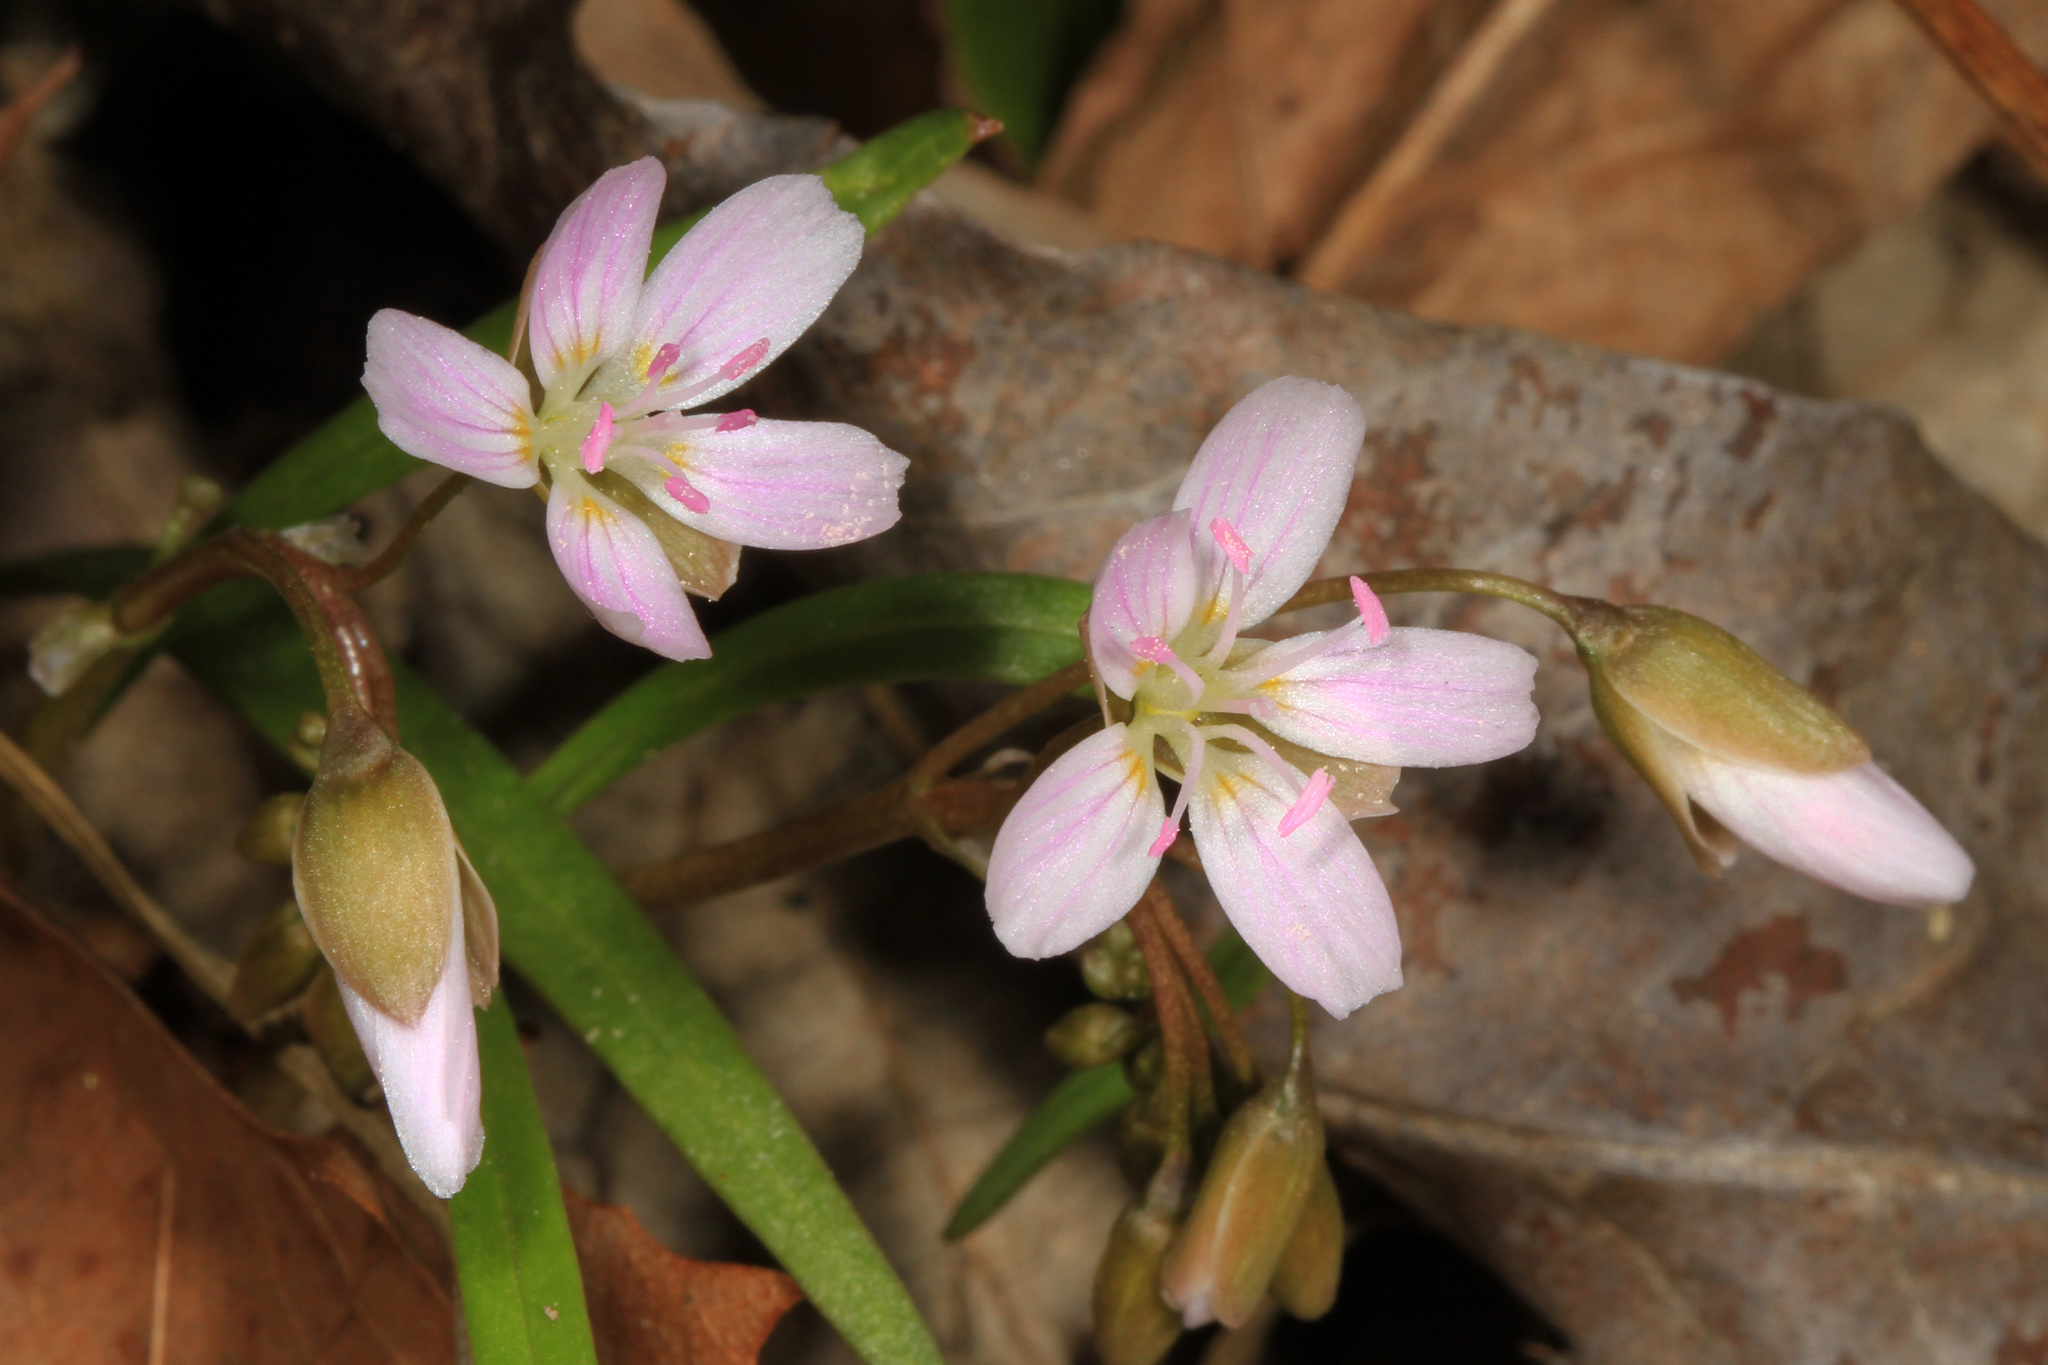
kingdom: Plantae
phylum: Tracheophyta
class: Magnoliopsida
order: Caryophyllales
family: Montiaceae
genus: Claytonia
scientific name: Claytonia virginica
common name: Virginia springbeauty
